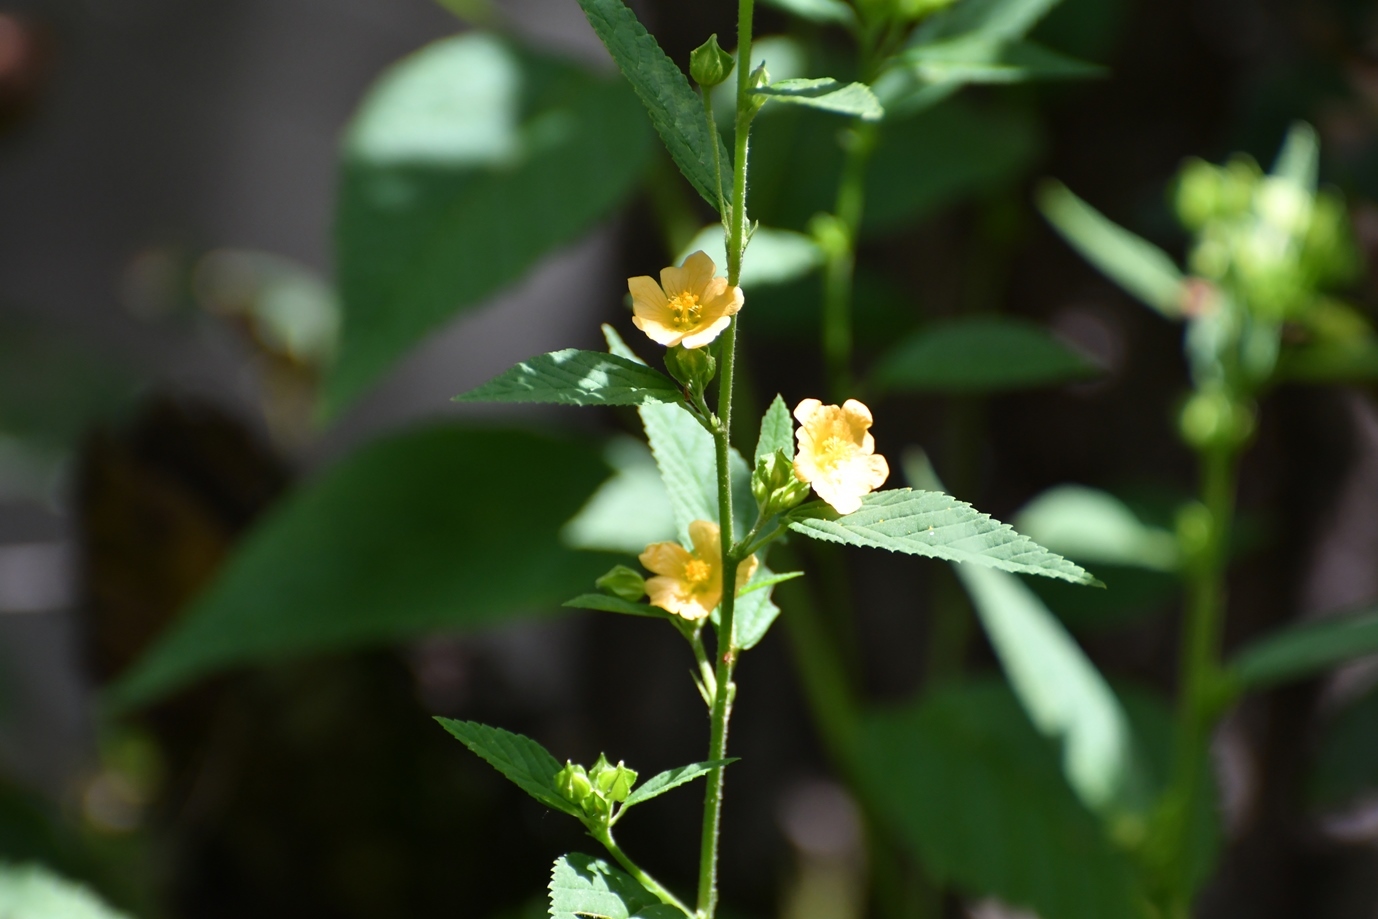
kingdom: Plantae
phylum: Tracheophyta
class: Magnoliopsida
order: Malvales
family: Malvaceae
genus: Sida
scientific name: Sida rhombifolia
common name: Queensland-hemp
